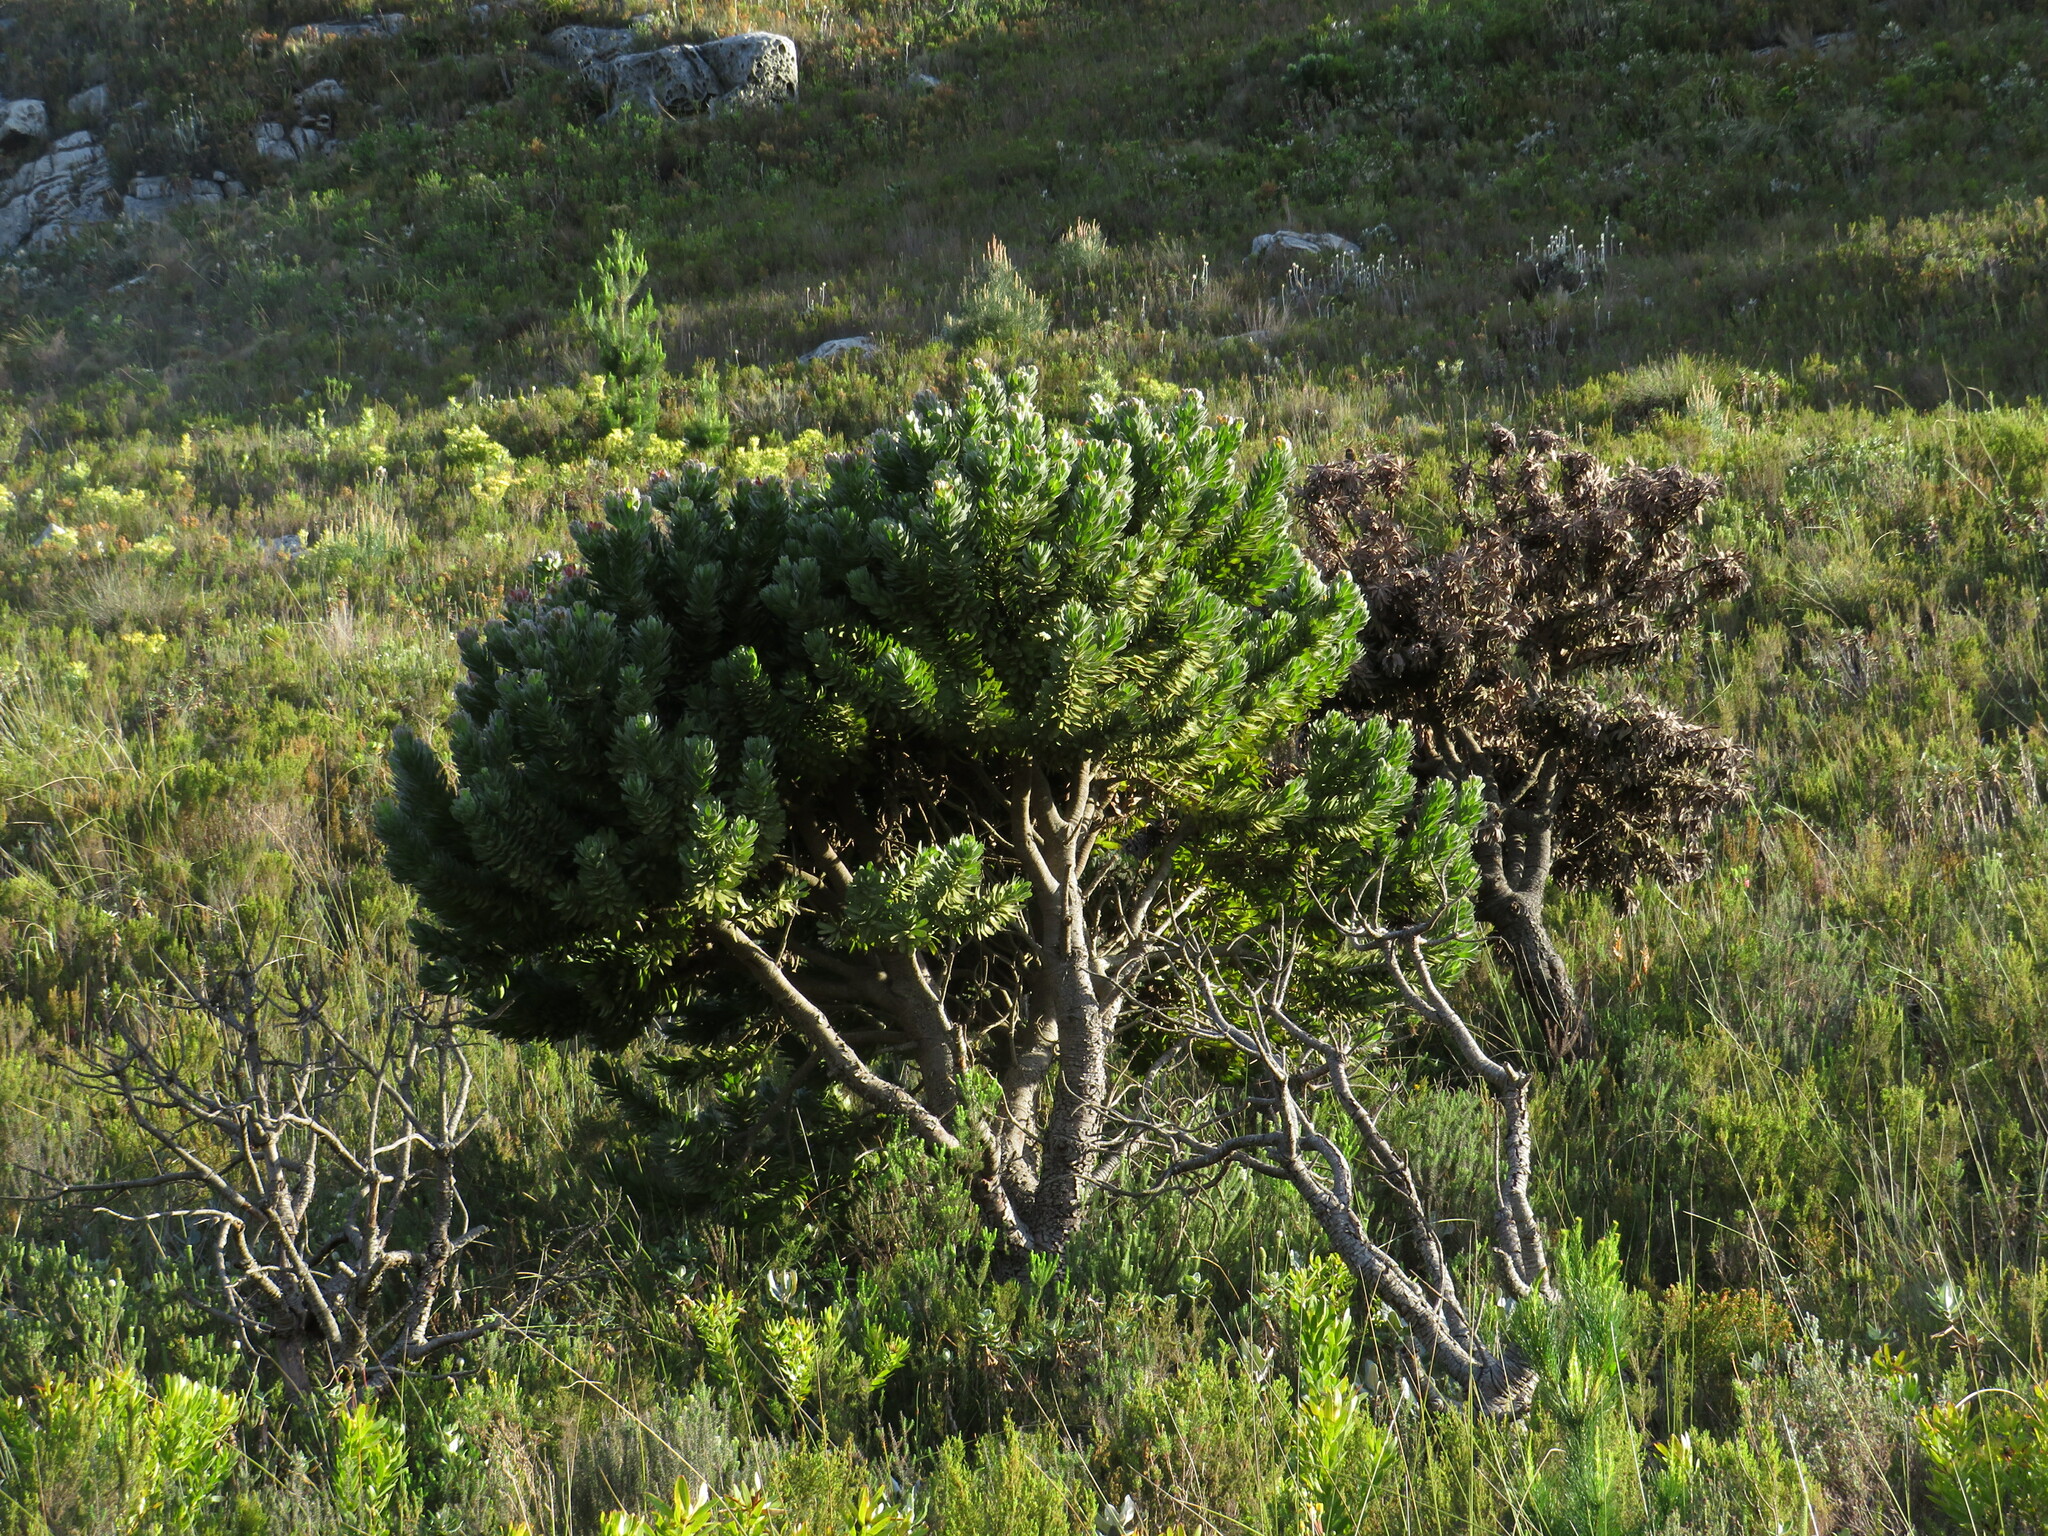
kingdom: Plantae
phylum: Tracheophyta
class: Magnoliopsida
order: Proteales
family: Proteaceae
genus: Mimetes
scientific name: Mimetes fimbriifolius
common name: Fringed bottlebrush
